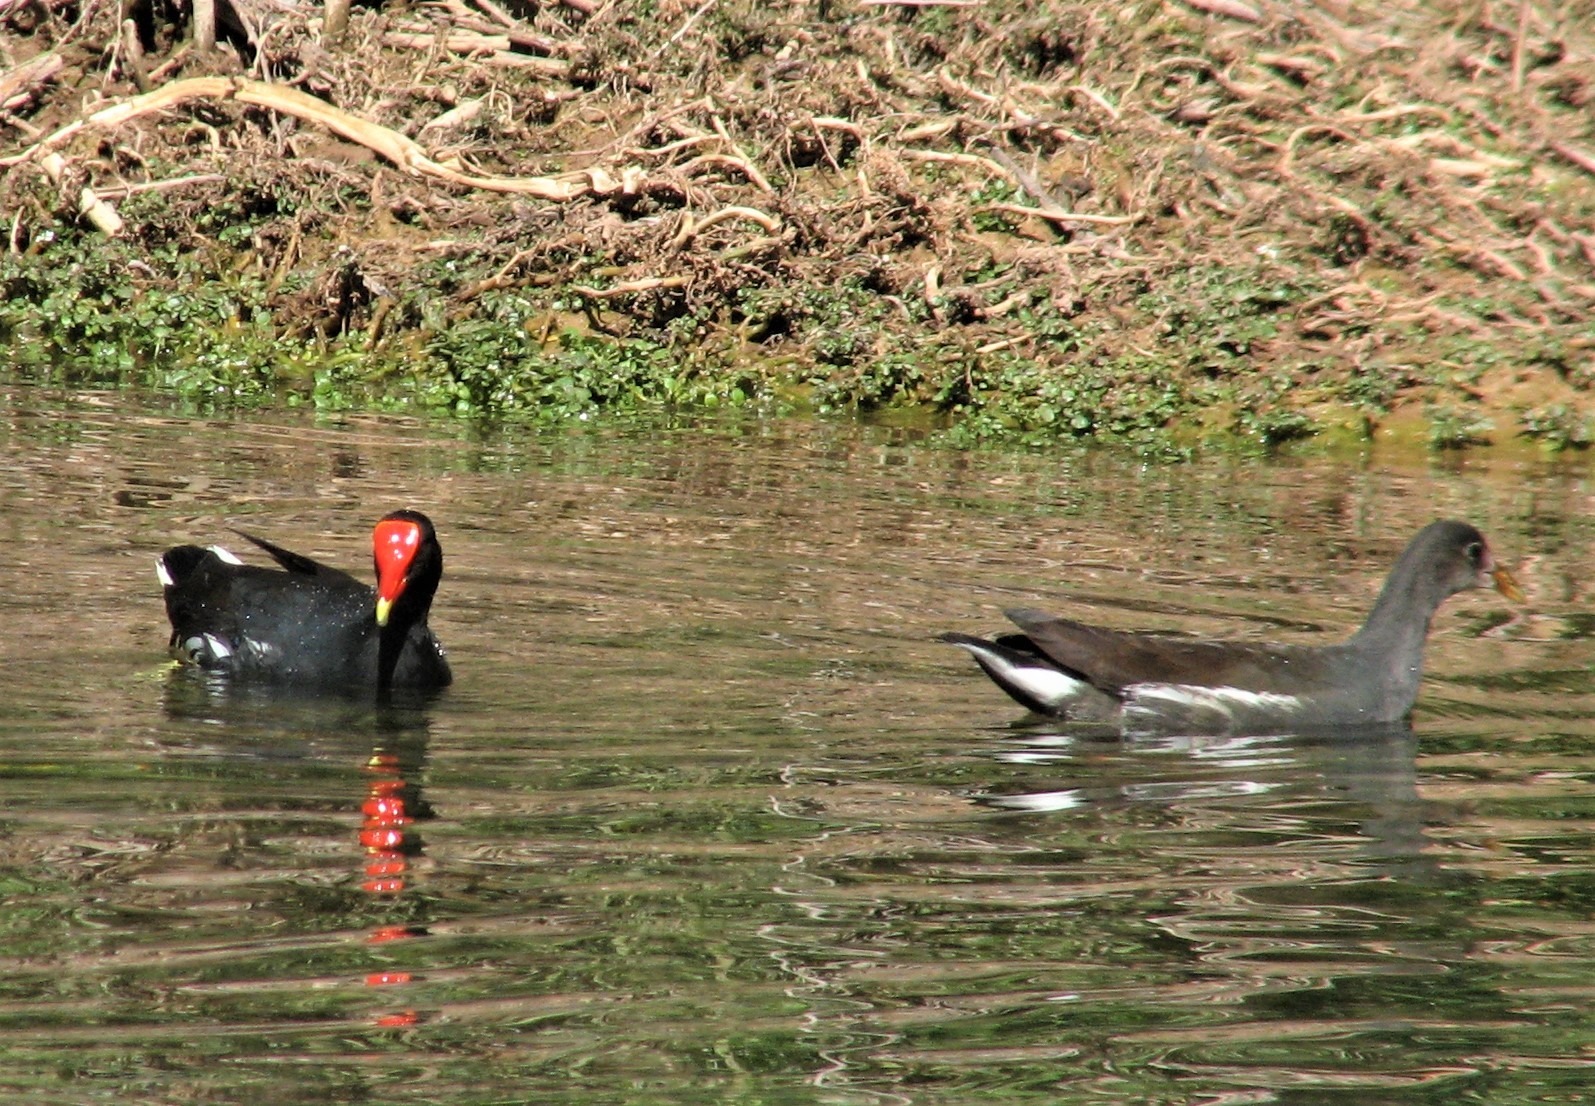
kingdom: Animalia
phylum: Chordata
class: Aves
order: Gruiformes
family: Rallidae
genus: Gallinula
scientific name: Gallinula chloropus
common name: Common moorhen
